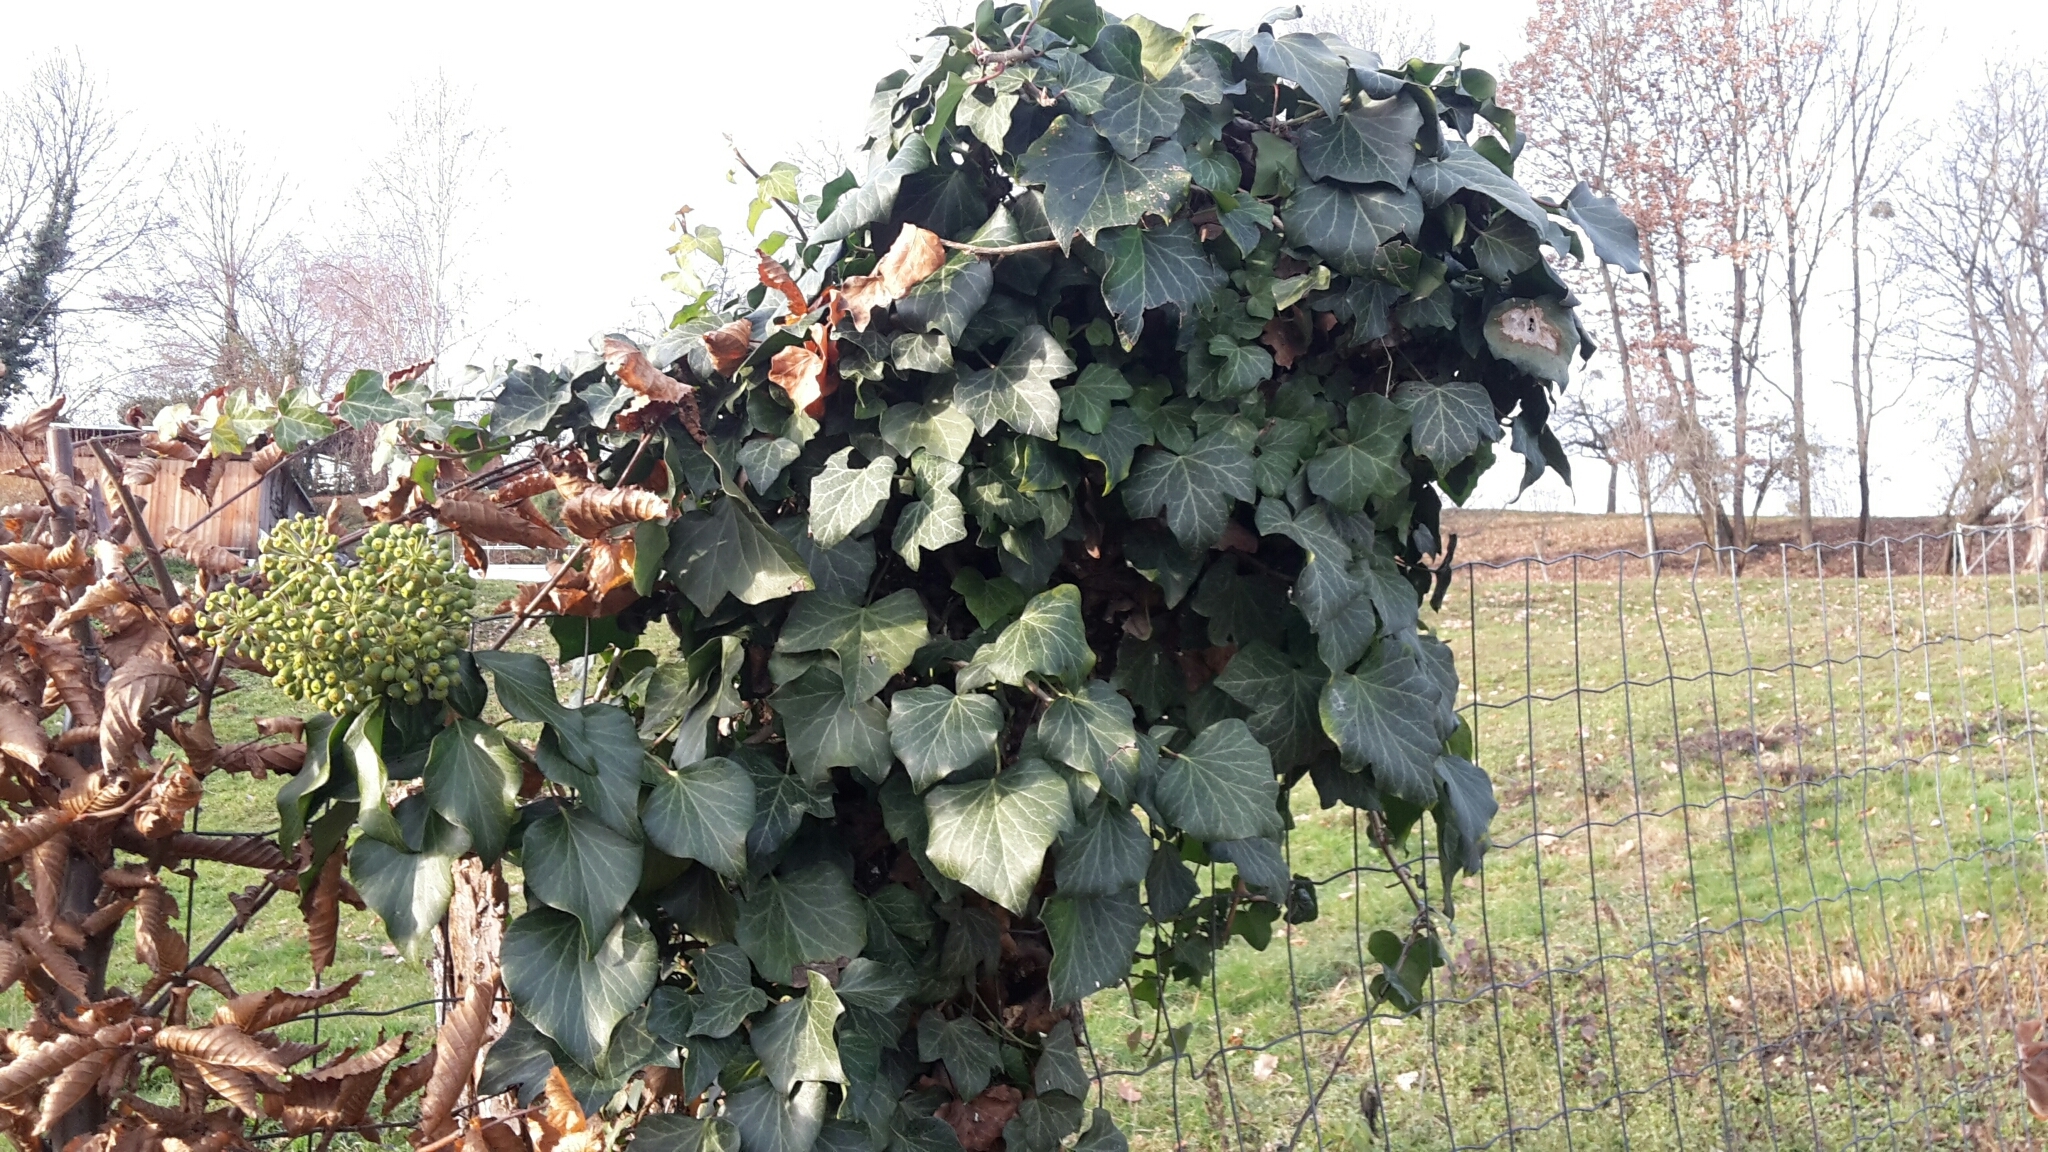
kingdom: Plantae
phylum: Tracheophyta
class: Magnoliopsida
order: Apiales
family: Araliaceae
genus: Hedera
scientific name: Hedera helix
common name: Ivy
